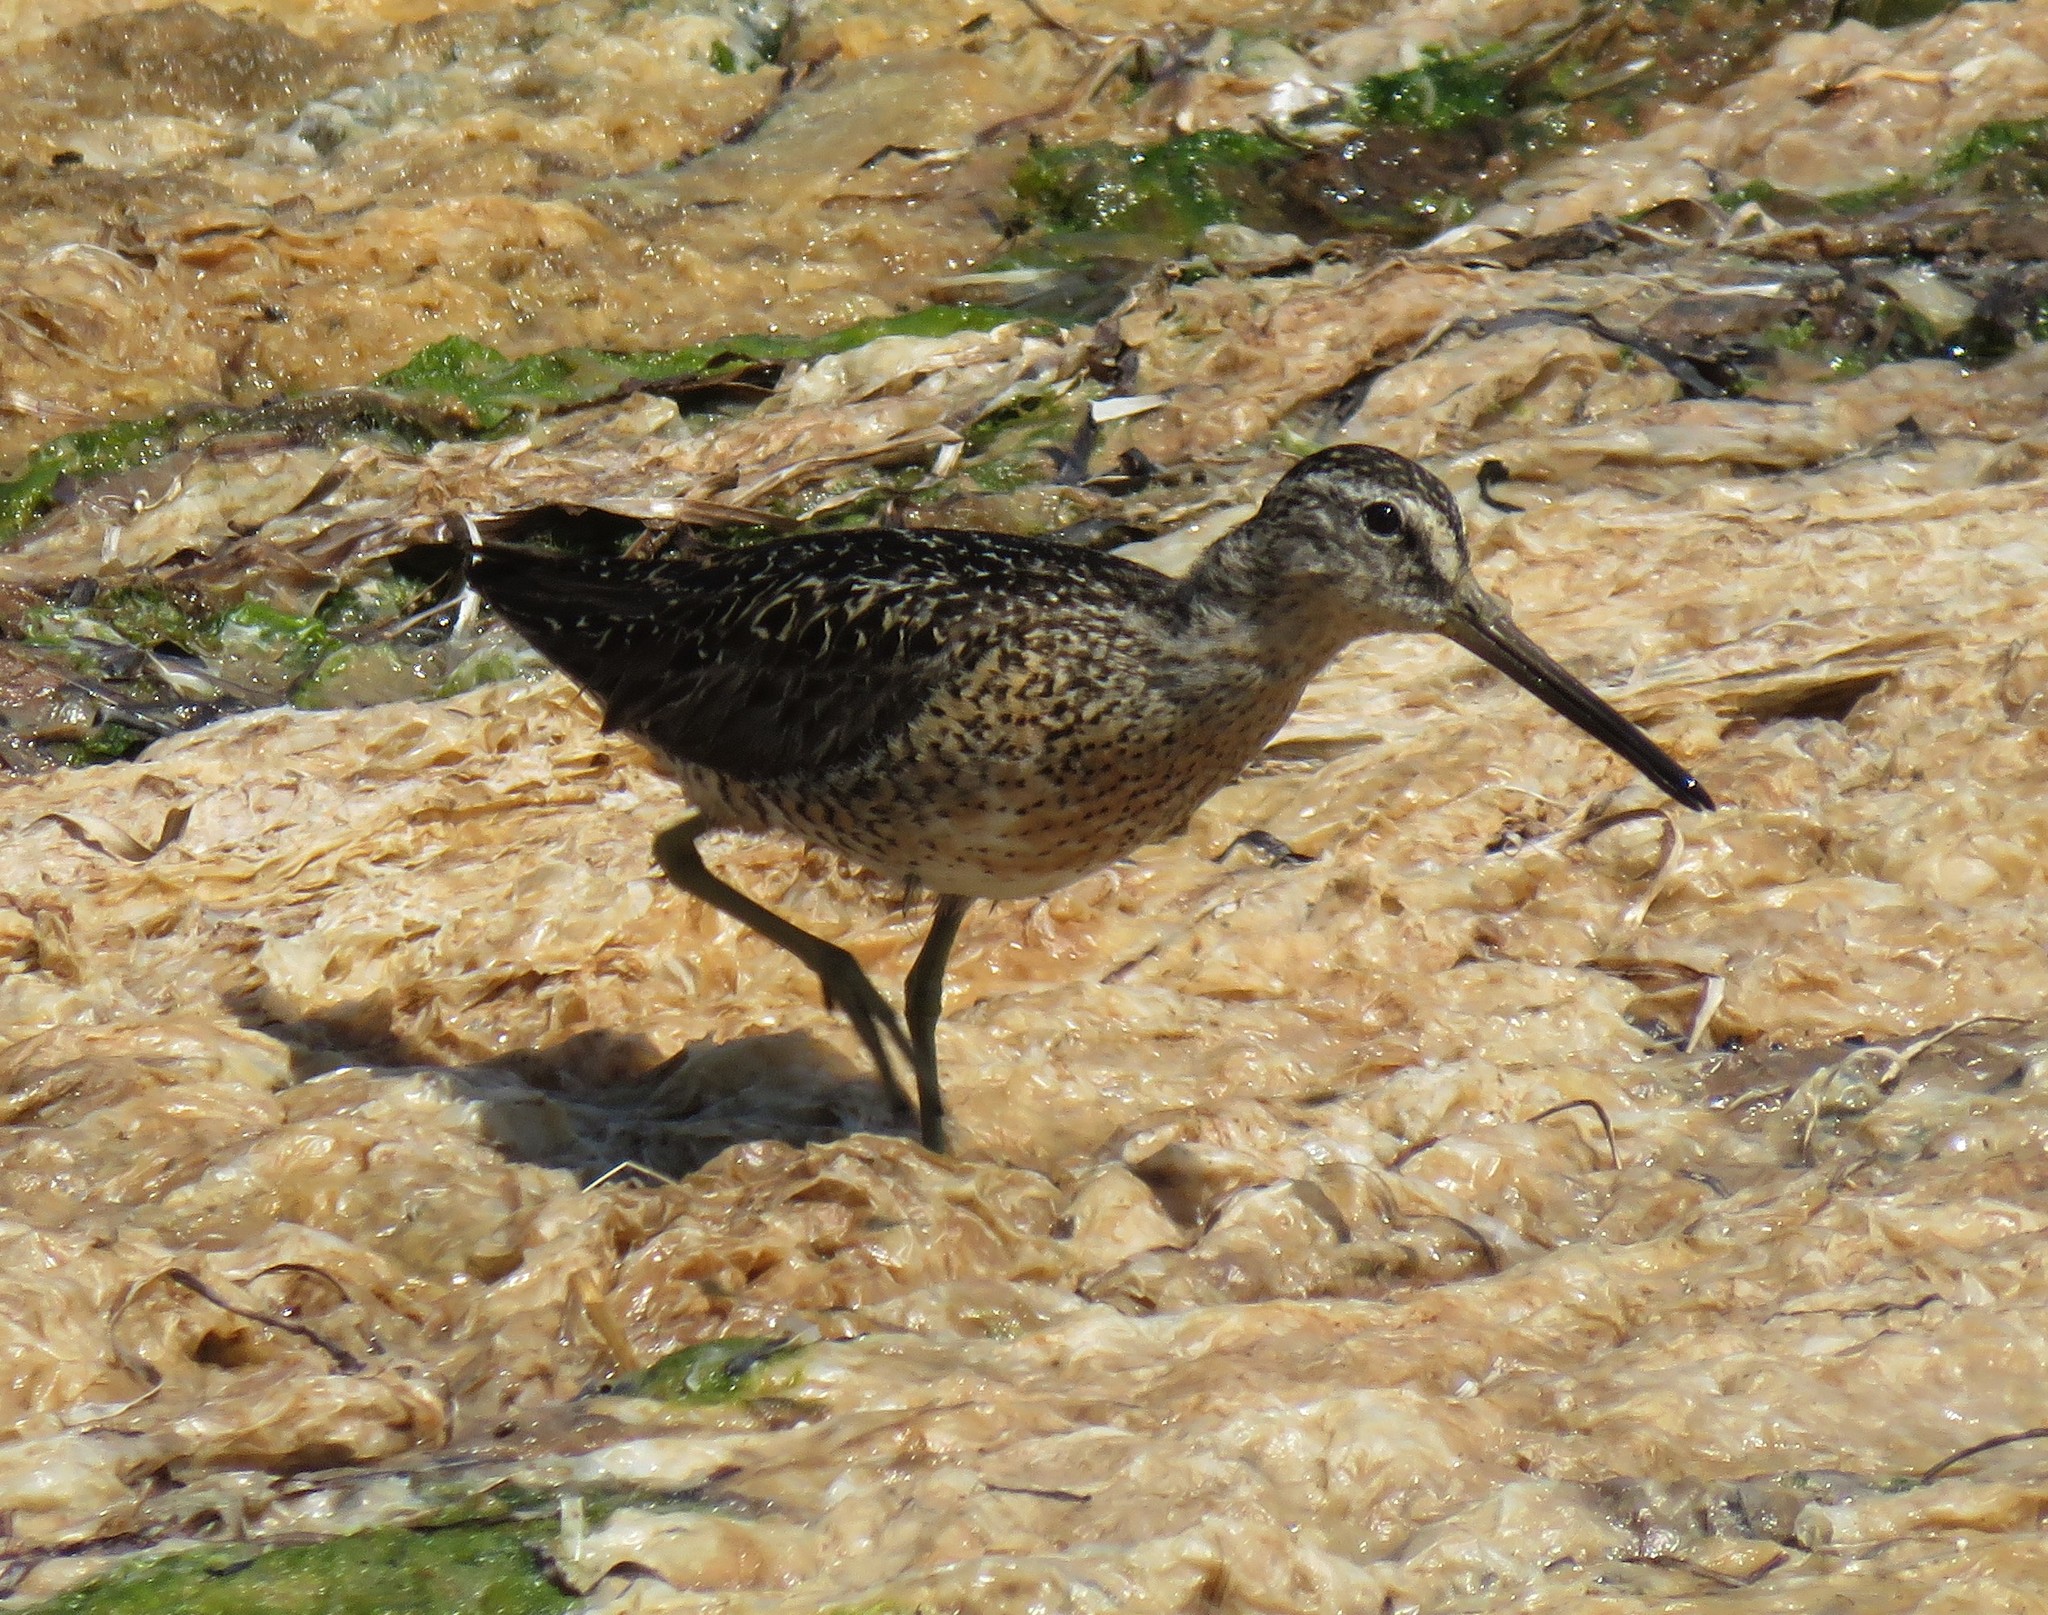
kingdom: Animalia
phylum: Chordata
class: Aves
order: Charadriiformes
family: Scolopacidae
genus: Limnodromus
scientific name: Limnodromus griseus
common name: Short-billed dowitcher
